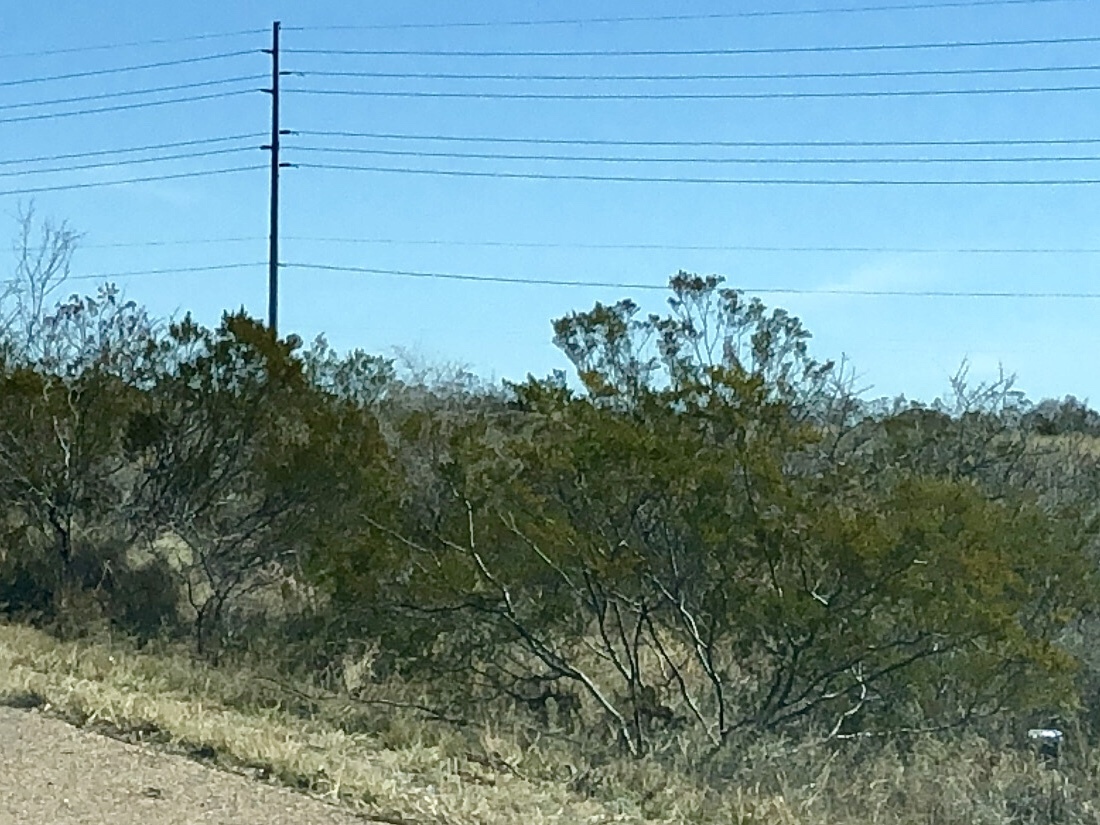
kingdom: Plantae
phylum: Tracheophyta
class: Magnoliopsida
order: Zygophyllales
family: Zygophyllaceae
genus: Larrea
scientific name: Larrea tridentata
